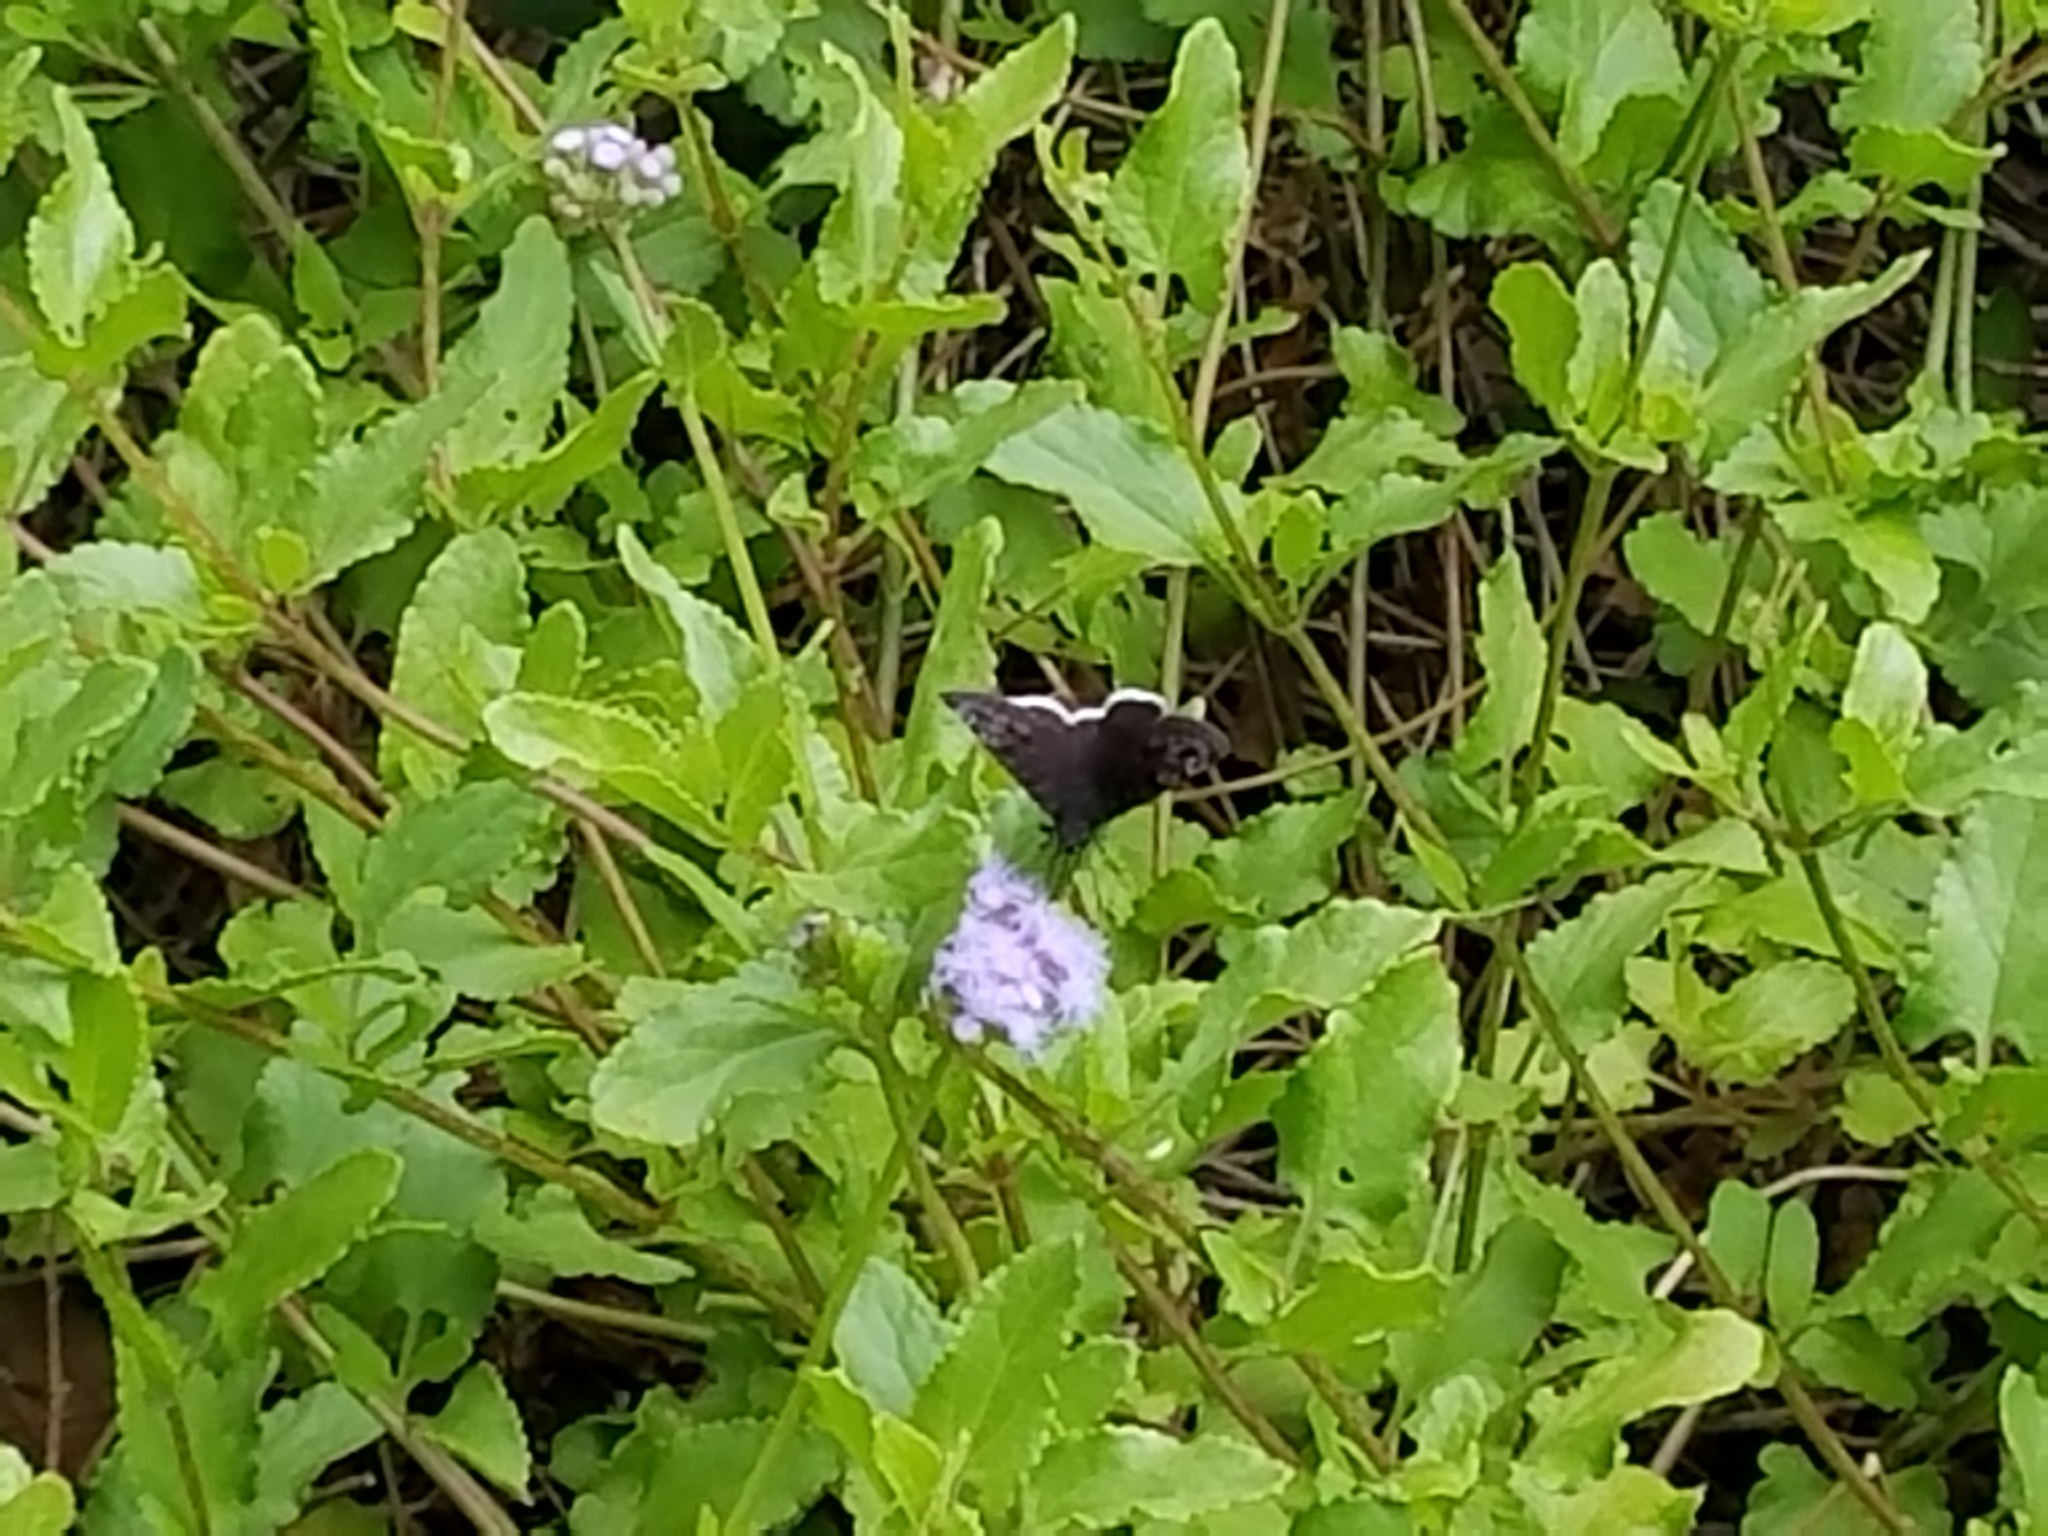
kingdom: Animalia
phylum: Arthropoda
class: Insecta
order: Lepidoptera
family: Hesperiidae
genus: Erynnis
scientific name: Erynnis tristis
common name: Mournful duskywing
